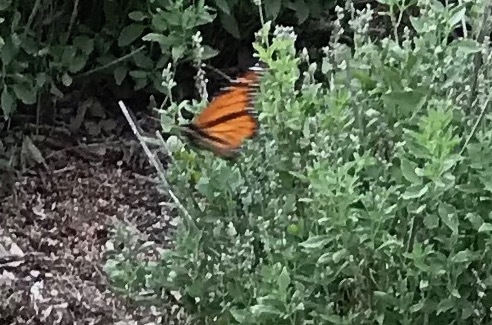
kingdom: Animalia
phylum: Arthropoda
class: Insecta
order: Lepidoptera
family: Nymphalidae
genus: Danaus
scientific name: Danaus plexippus
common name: Monarch
